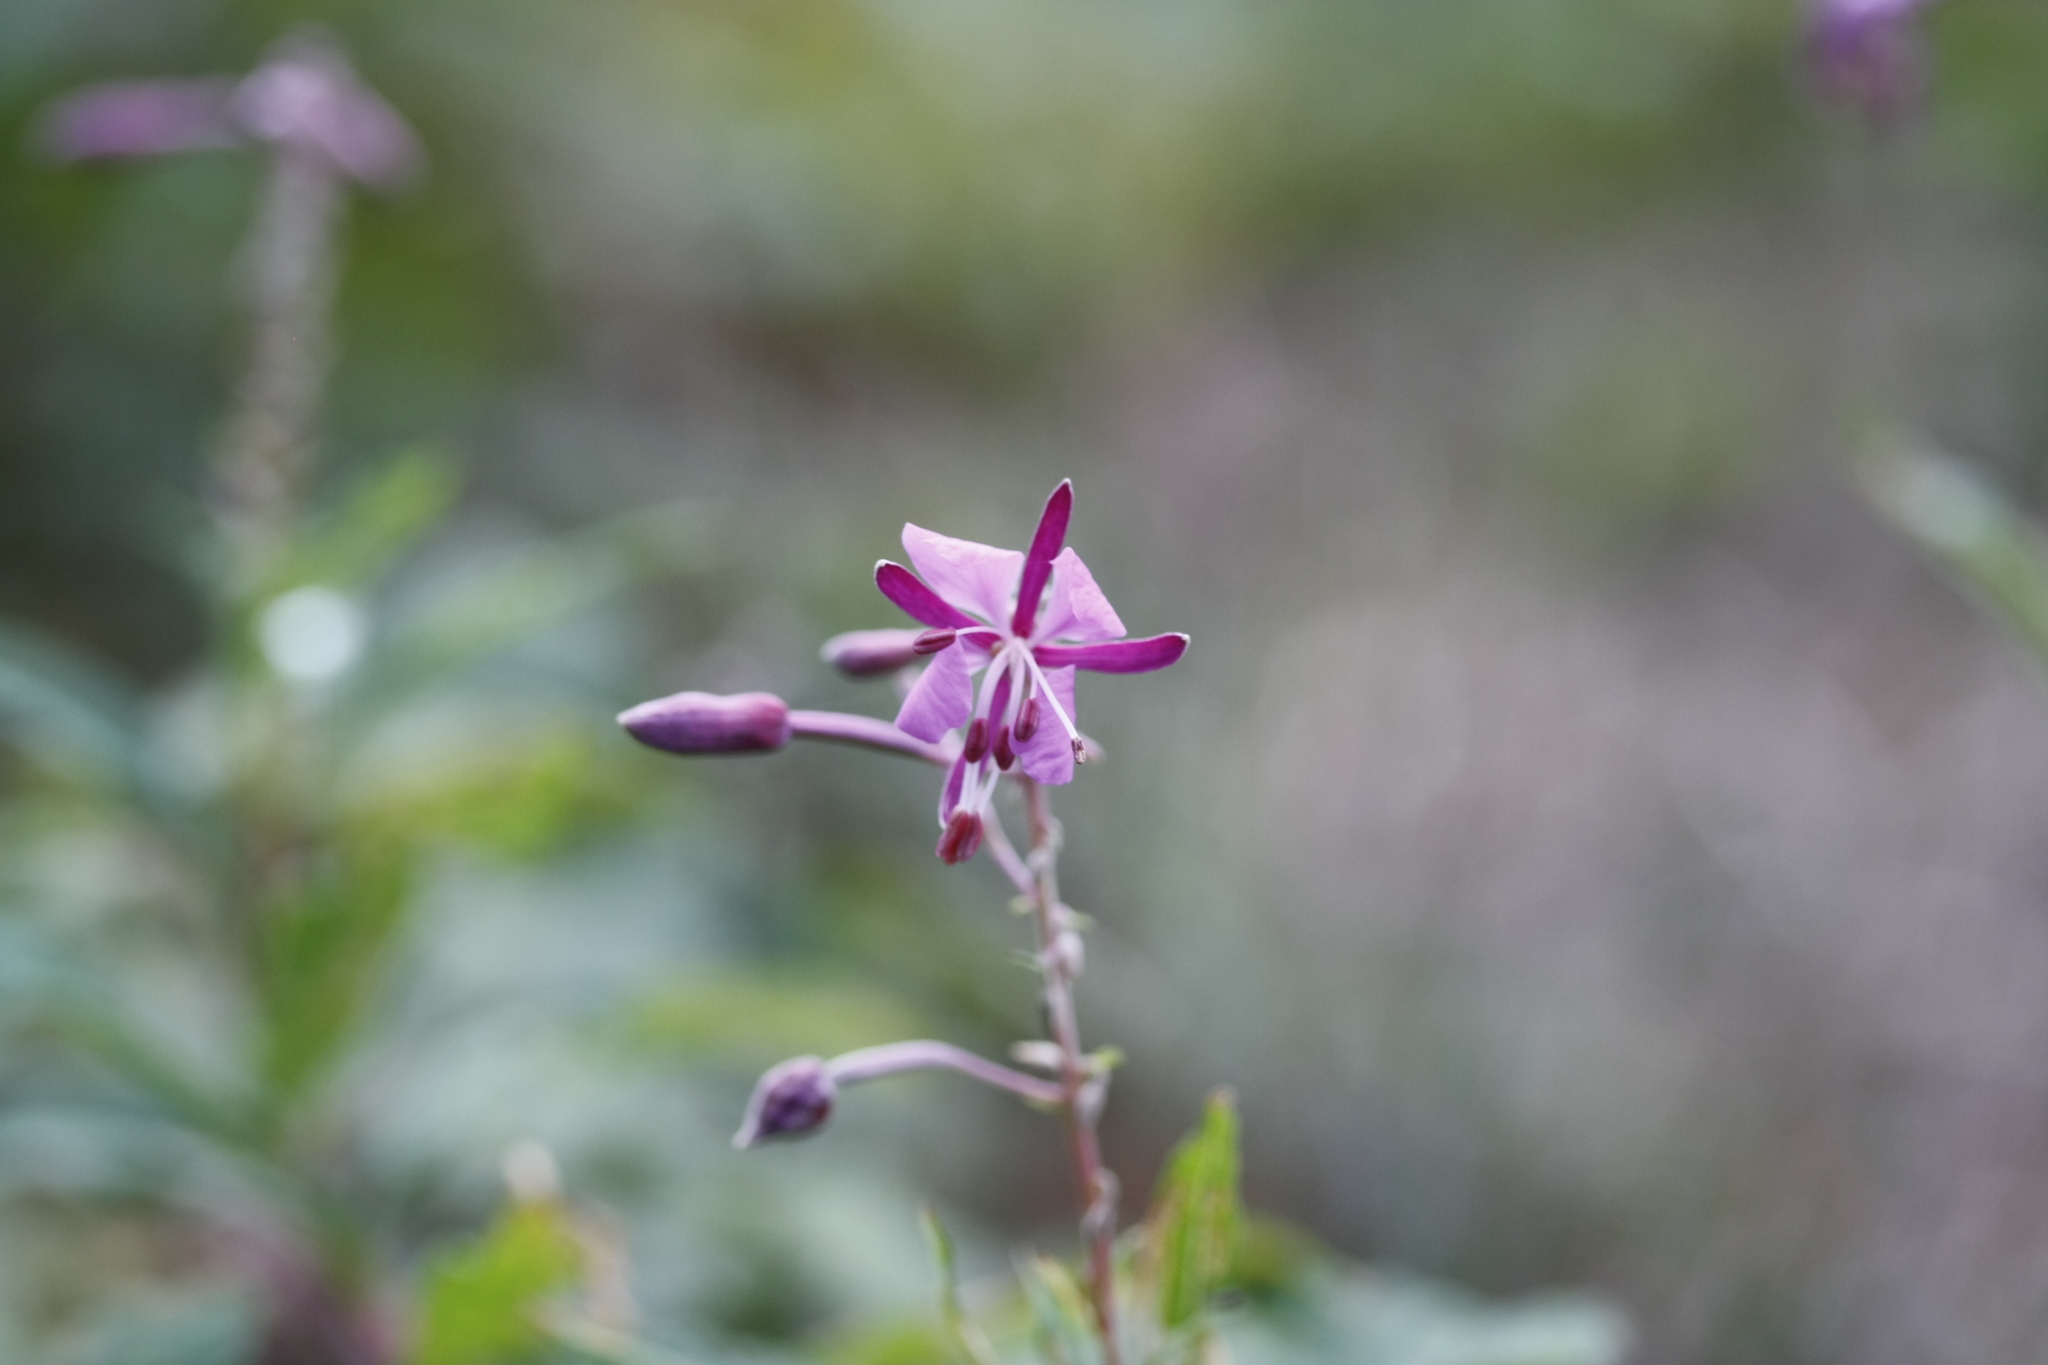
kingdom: Plantae
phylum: Tracheophyta
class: Magnoliopsida
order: Myrtales
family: Onagraceae
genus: Chamaenerion
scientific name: Chamaenerion angustifolium
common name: Fireweed
